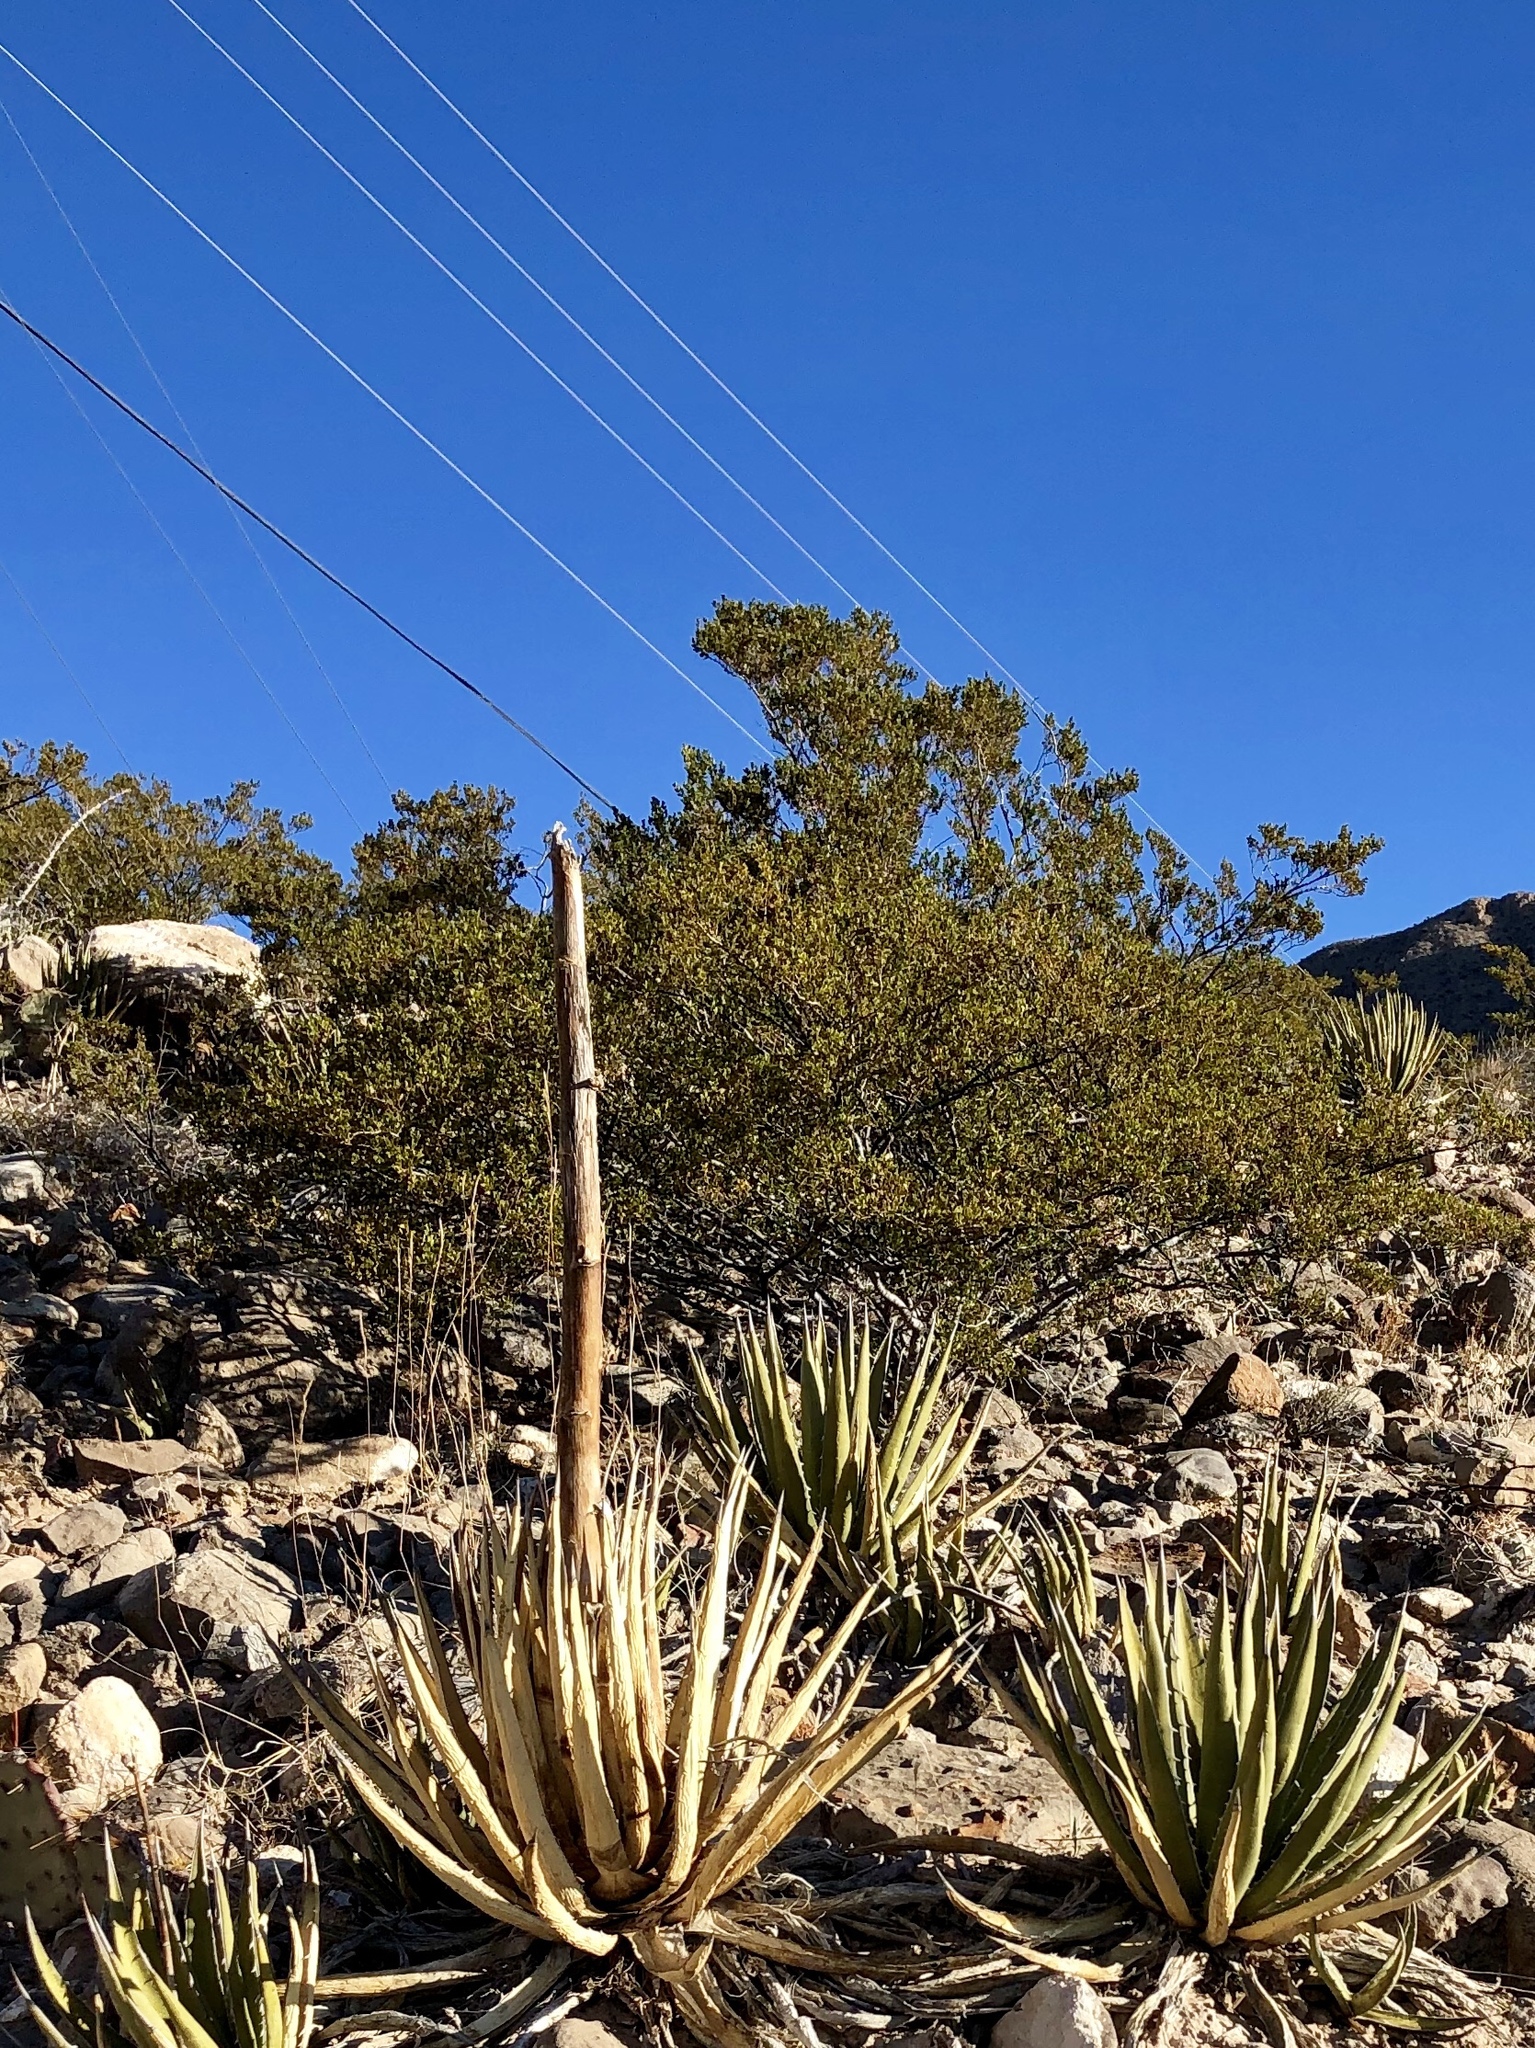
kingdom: Plantae
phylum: Tracheophyta
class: Magnoliopsida
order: Zygophyllales
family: Zygophyllaceae
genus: Larrea
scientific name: Larrea tridentata
